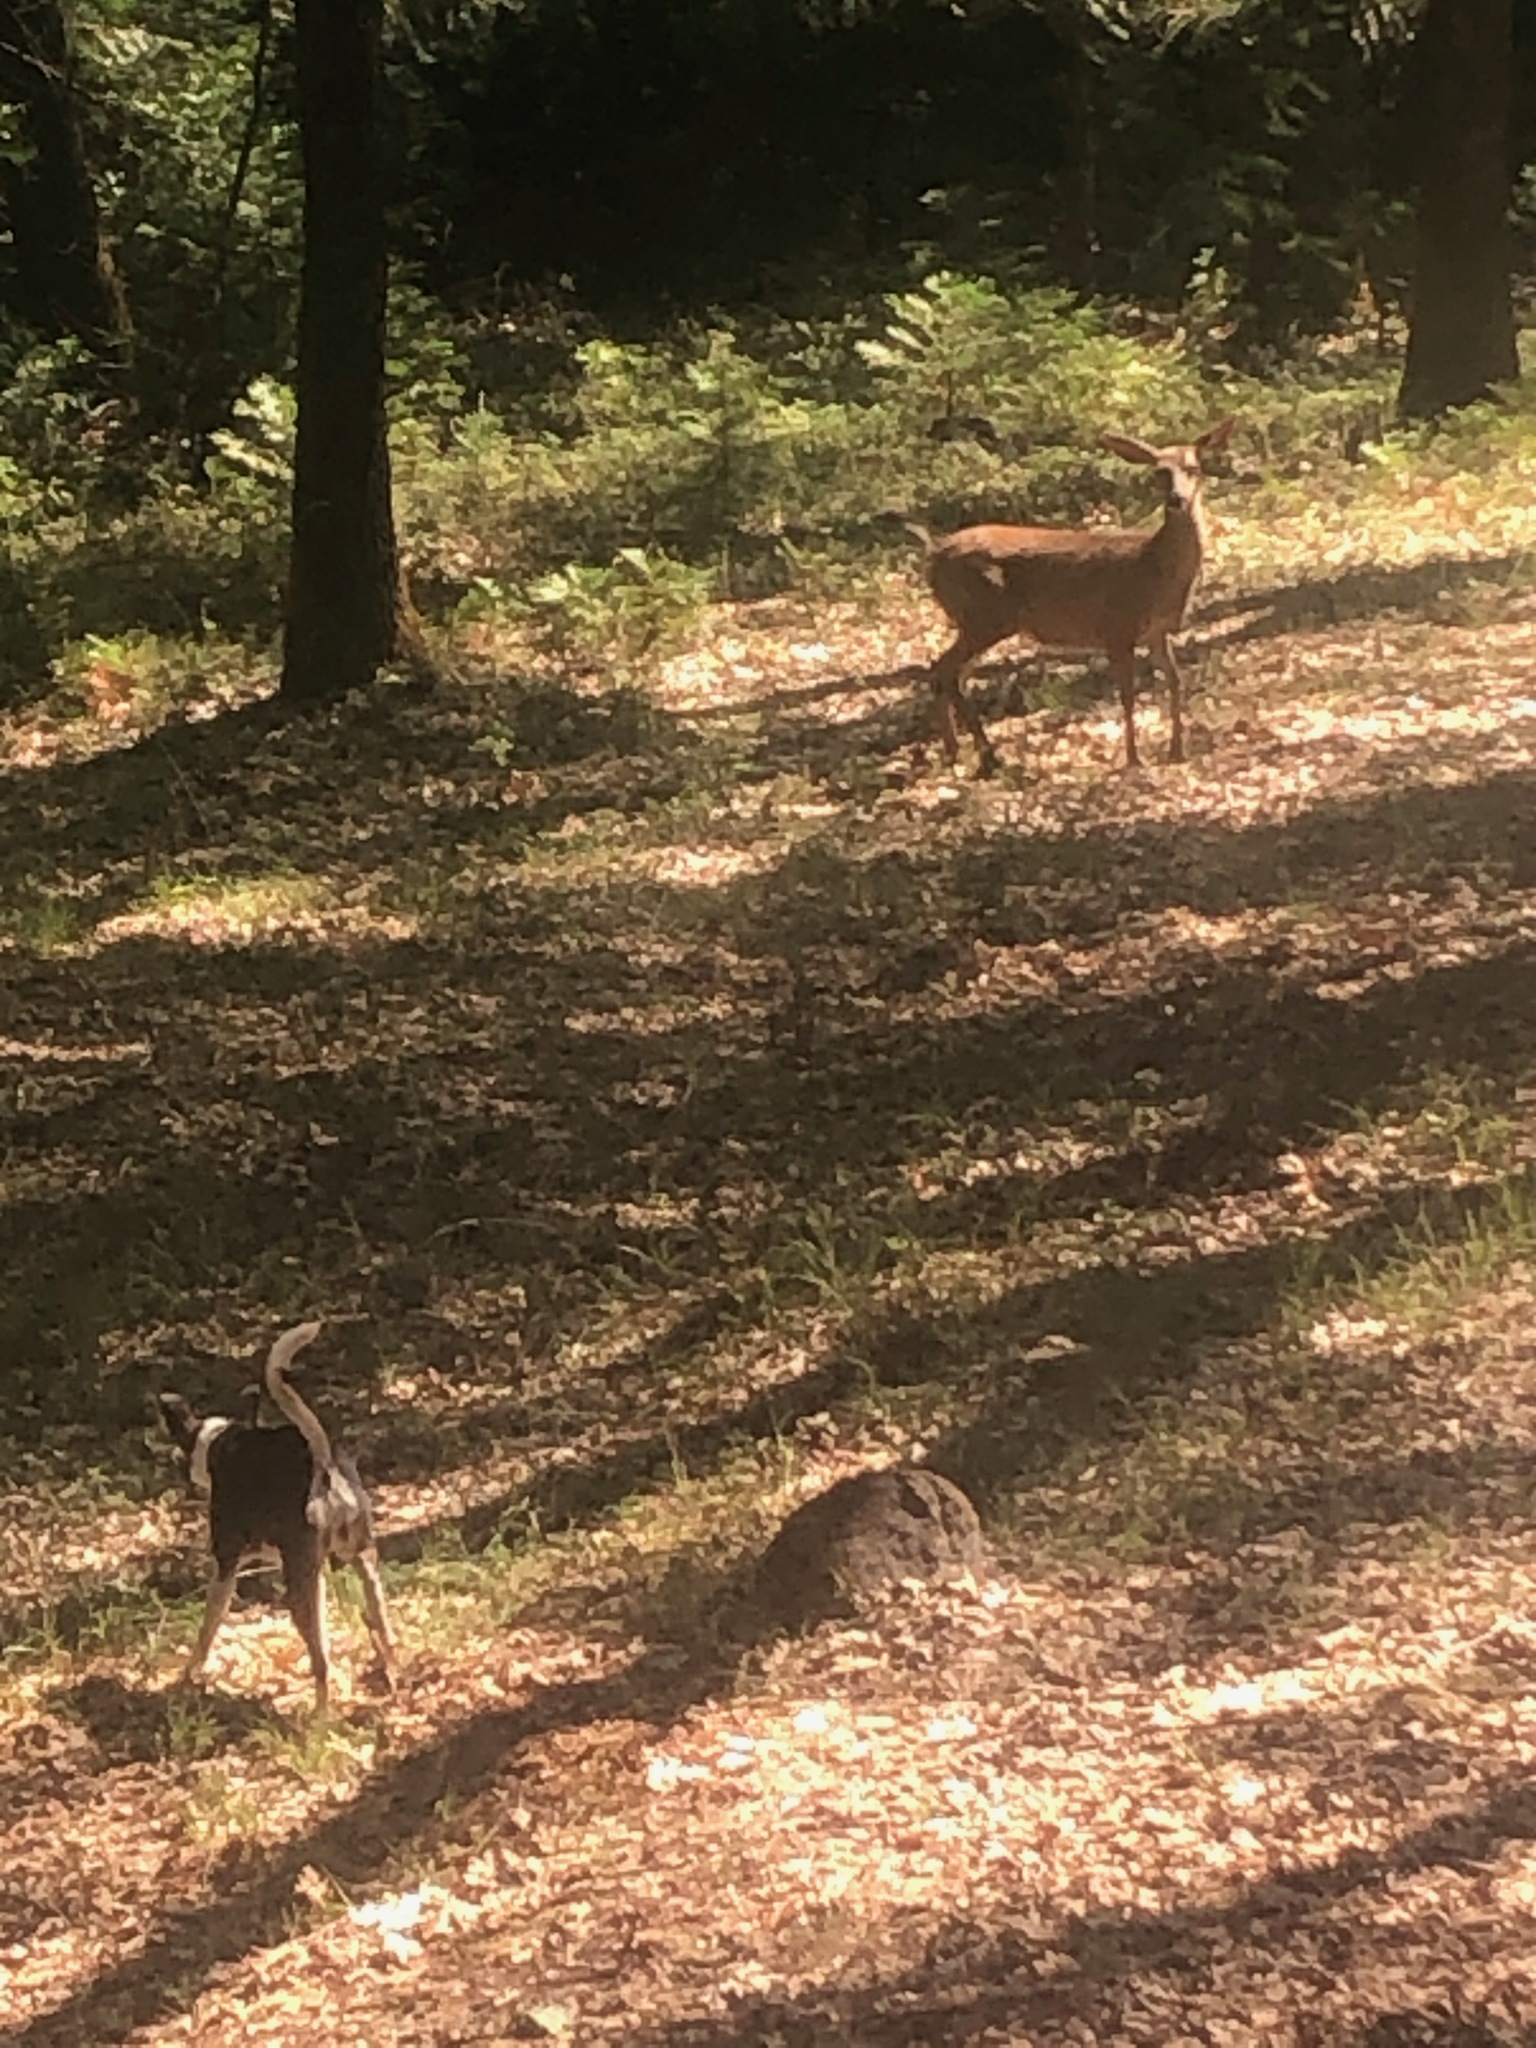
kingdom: Animalia
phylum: Chordata
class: Mammalia
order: Artiodactyla
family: Cervidae
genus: Odocoileus
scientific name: Odocoileus hemionus
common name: Mule deer
